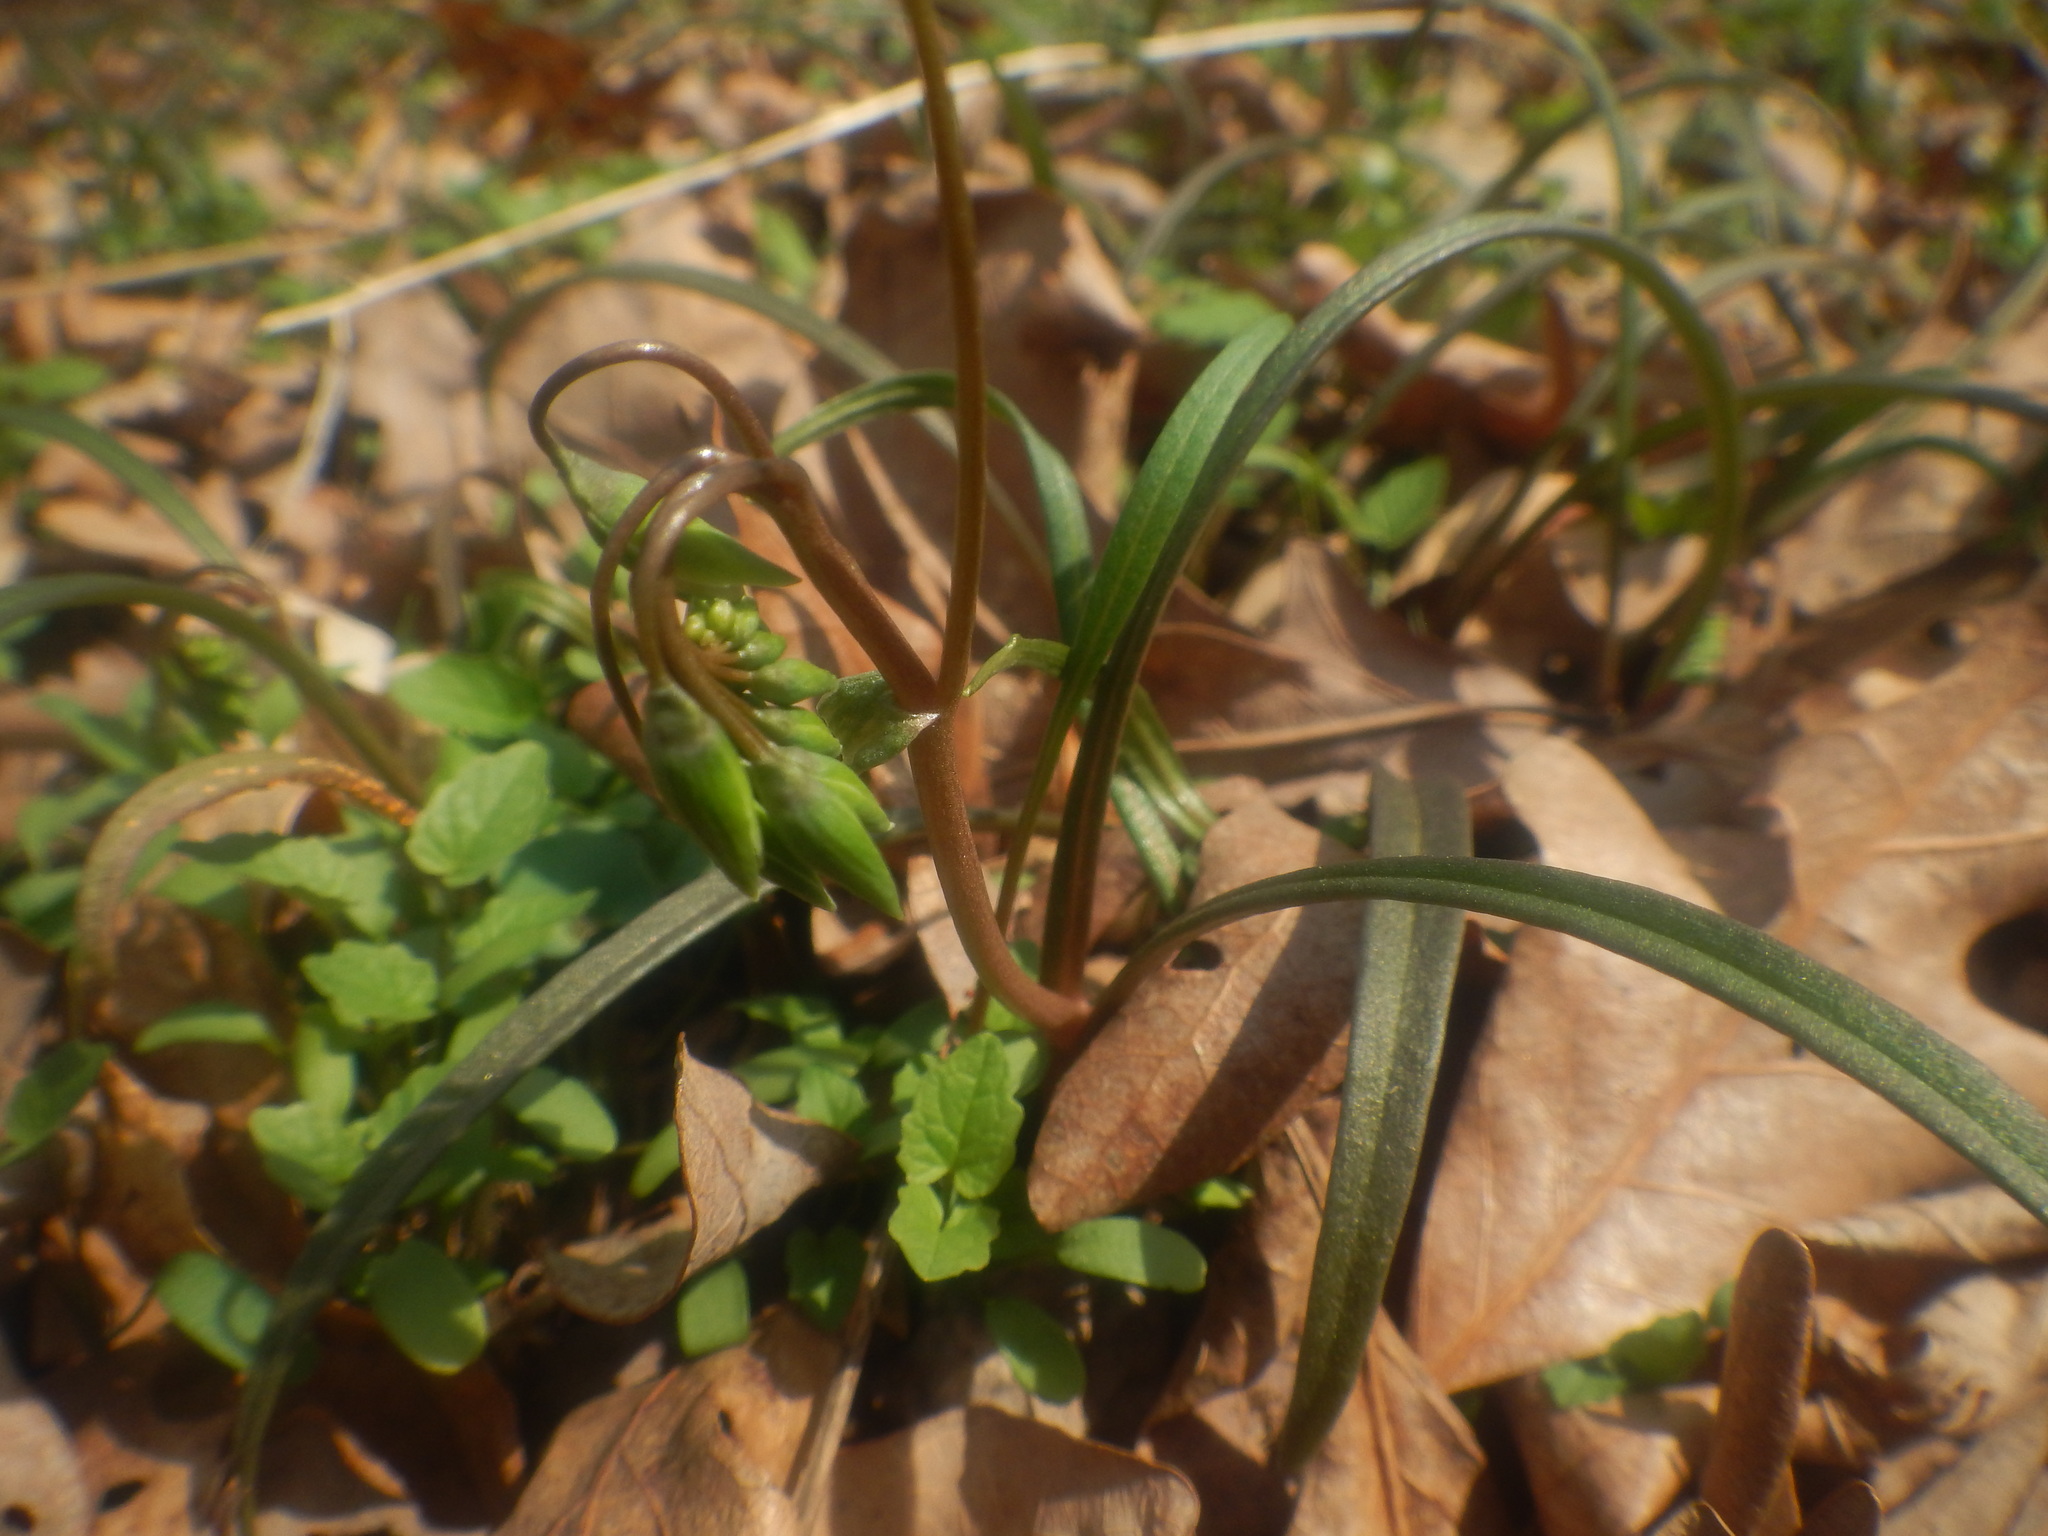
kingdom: Plantae
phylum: Tracheophyta
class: Magnoliopsida
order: Caryophyllales
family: Montiaceae
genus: Claytonia
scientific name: Claytonia virginica
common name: Virginia springbeauty
